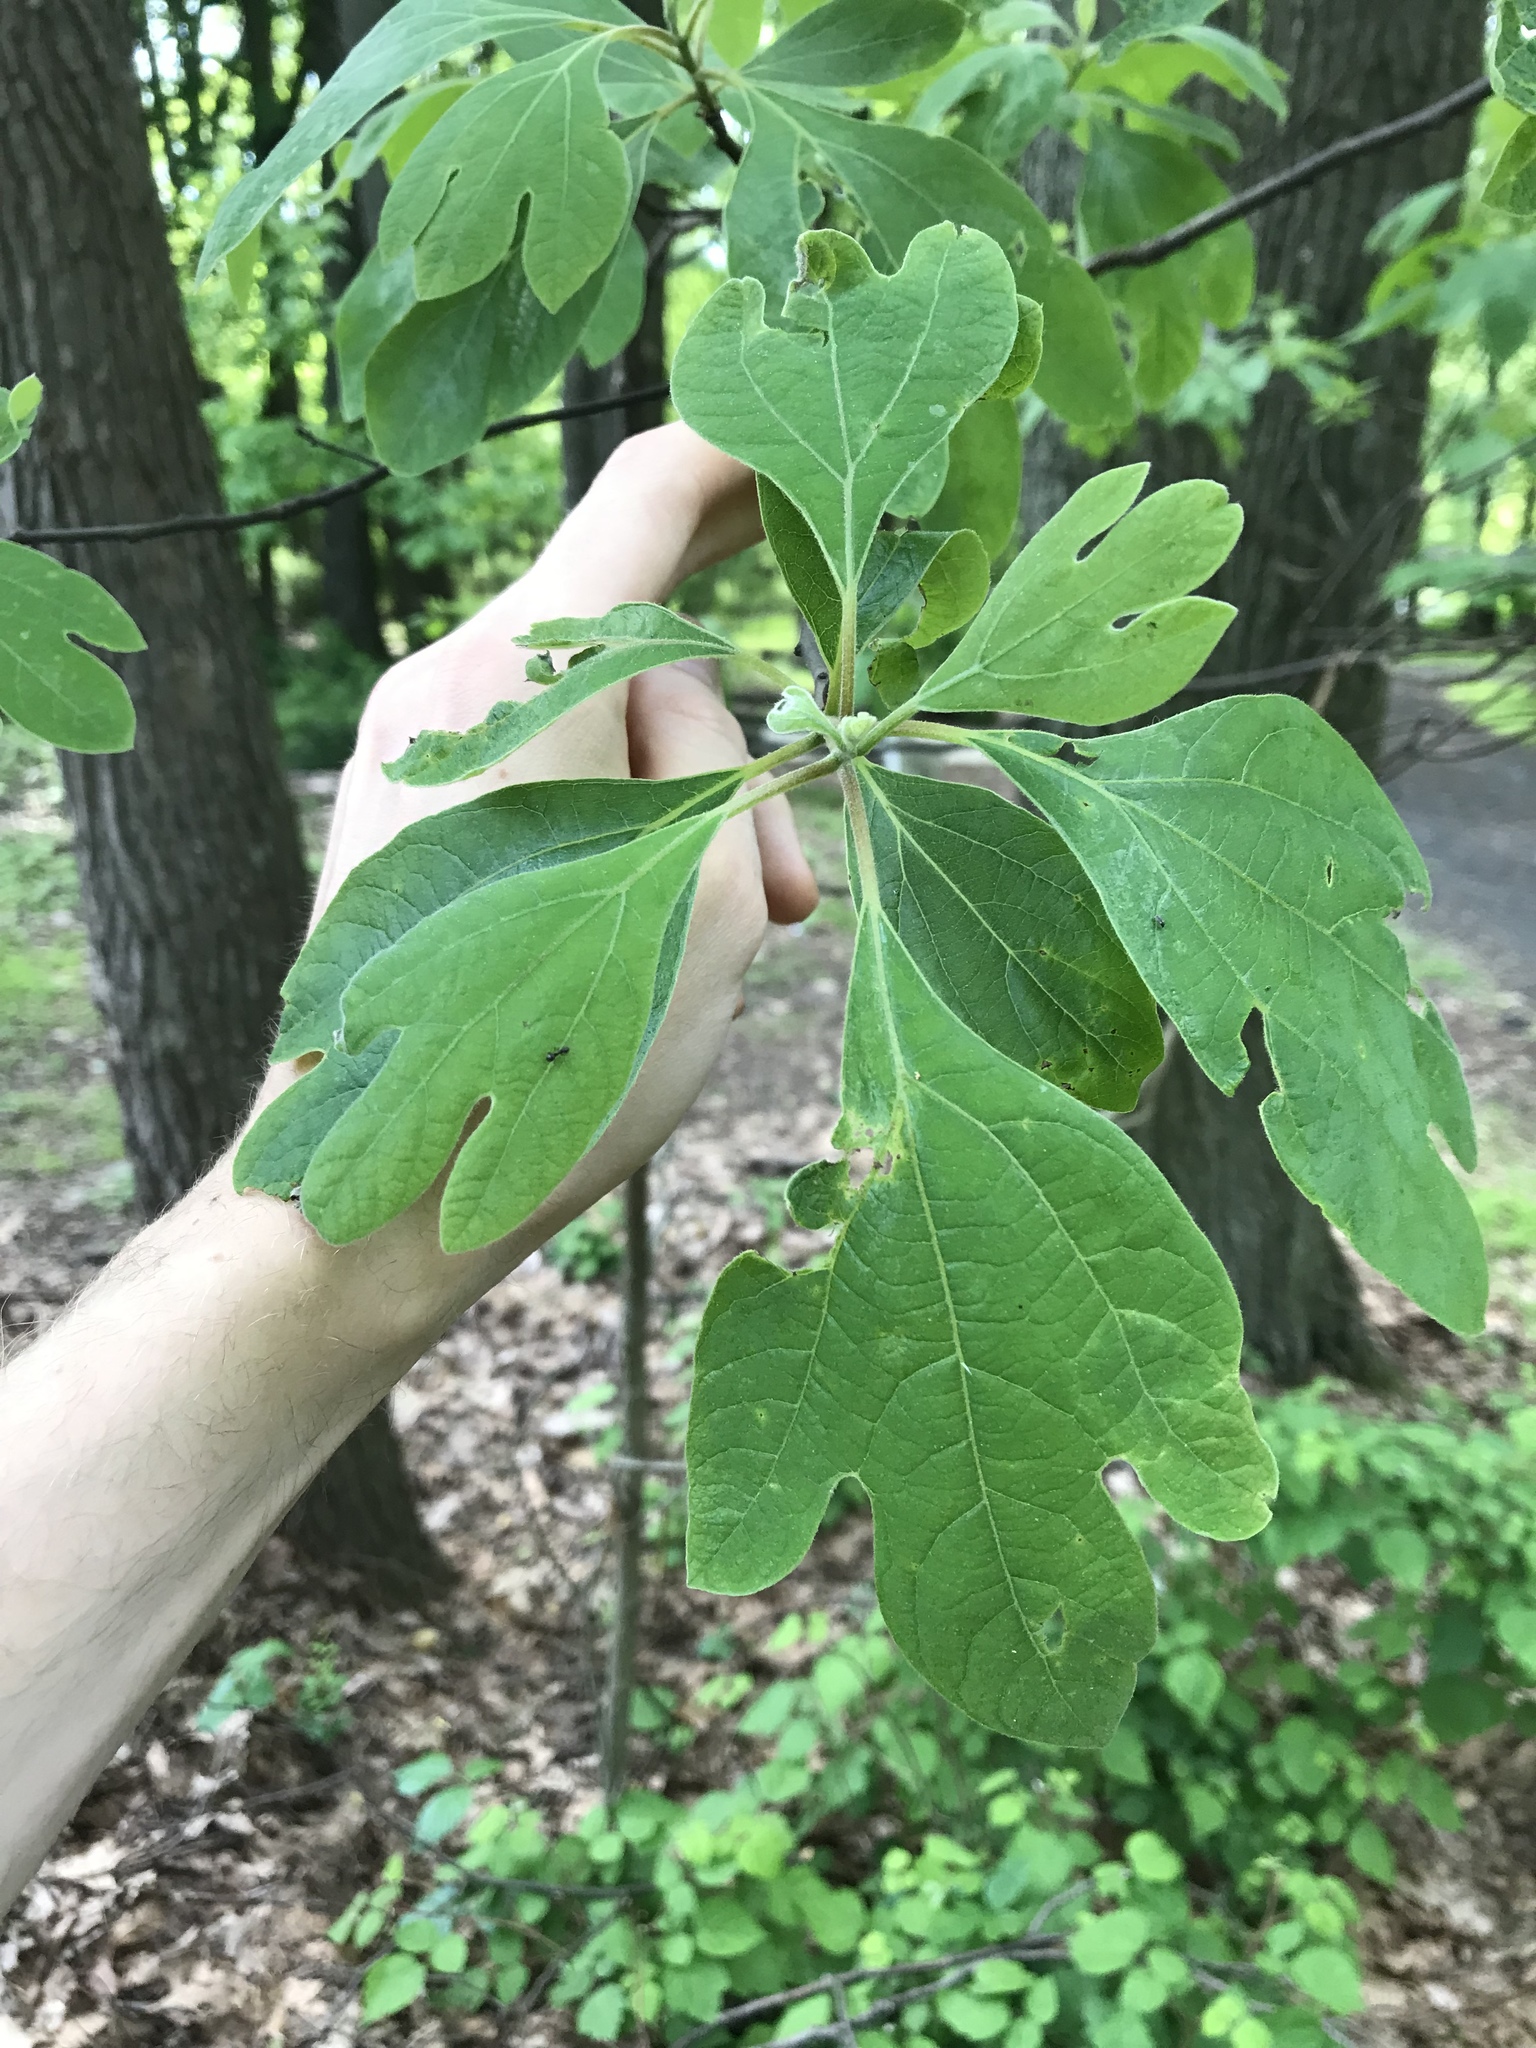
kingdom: Plantae
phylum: Tracheophyta
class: Magnoliopsida
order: Laurales
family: Lauraceae
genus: Sassafras
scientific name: Sassafras albidum
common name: Sassafras
